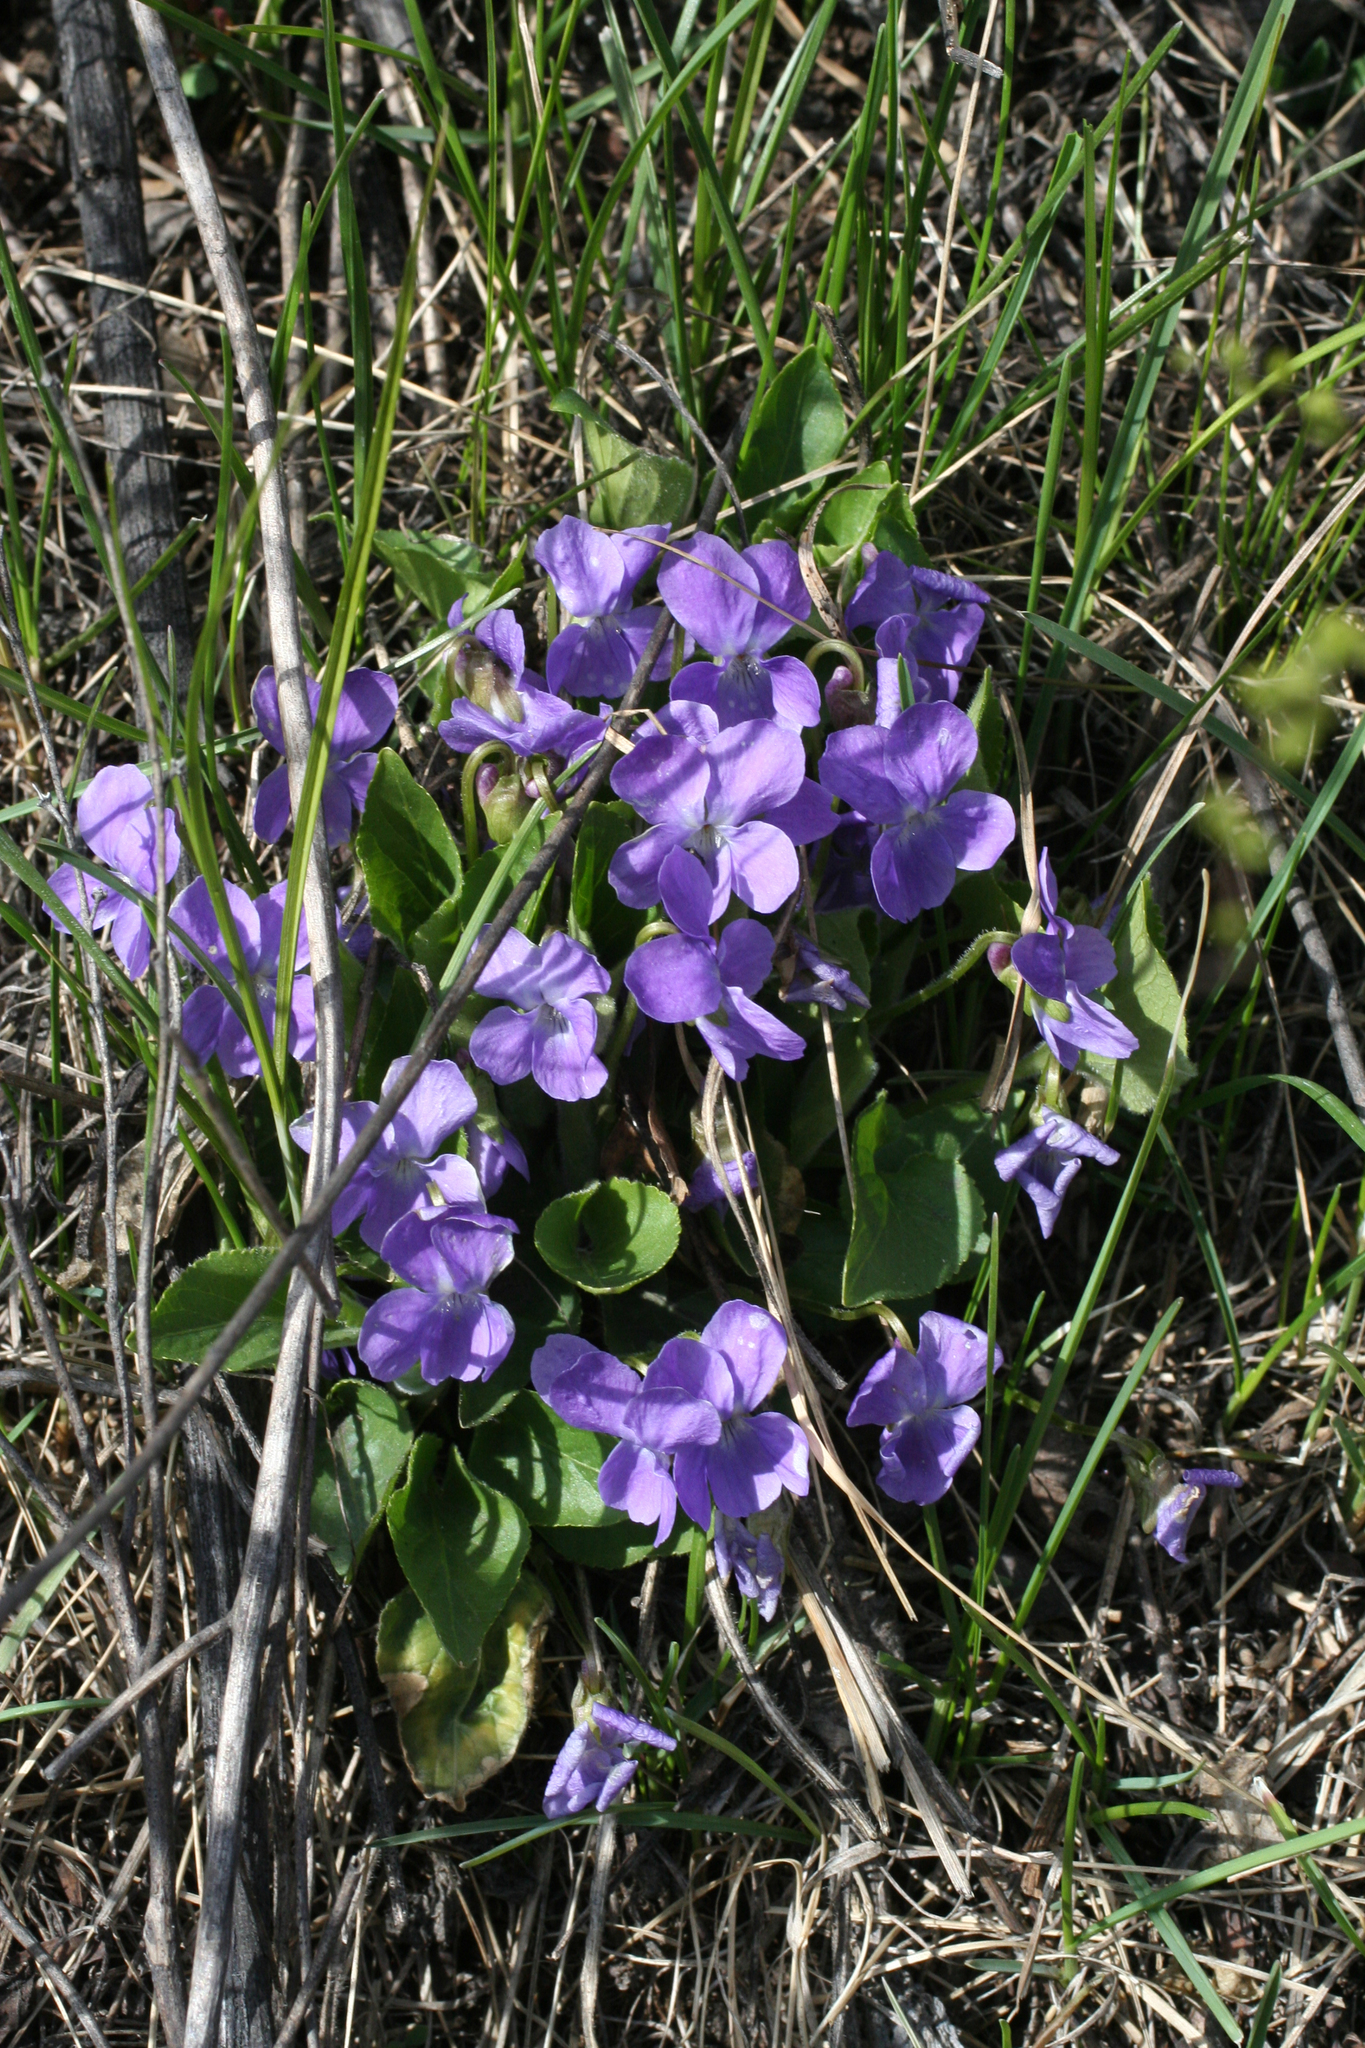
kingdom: Plantae
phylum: Tracheophyta
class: Magnoliopsida
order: Malpighiales
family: Violaceae
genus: Viola
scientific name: Viola hirta
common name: Hairy violet
